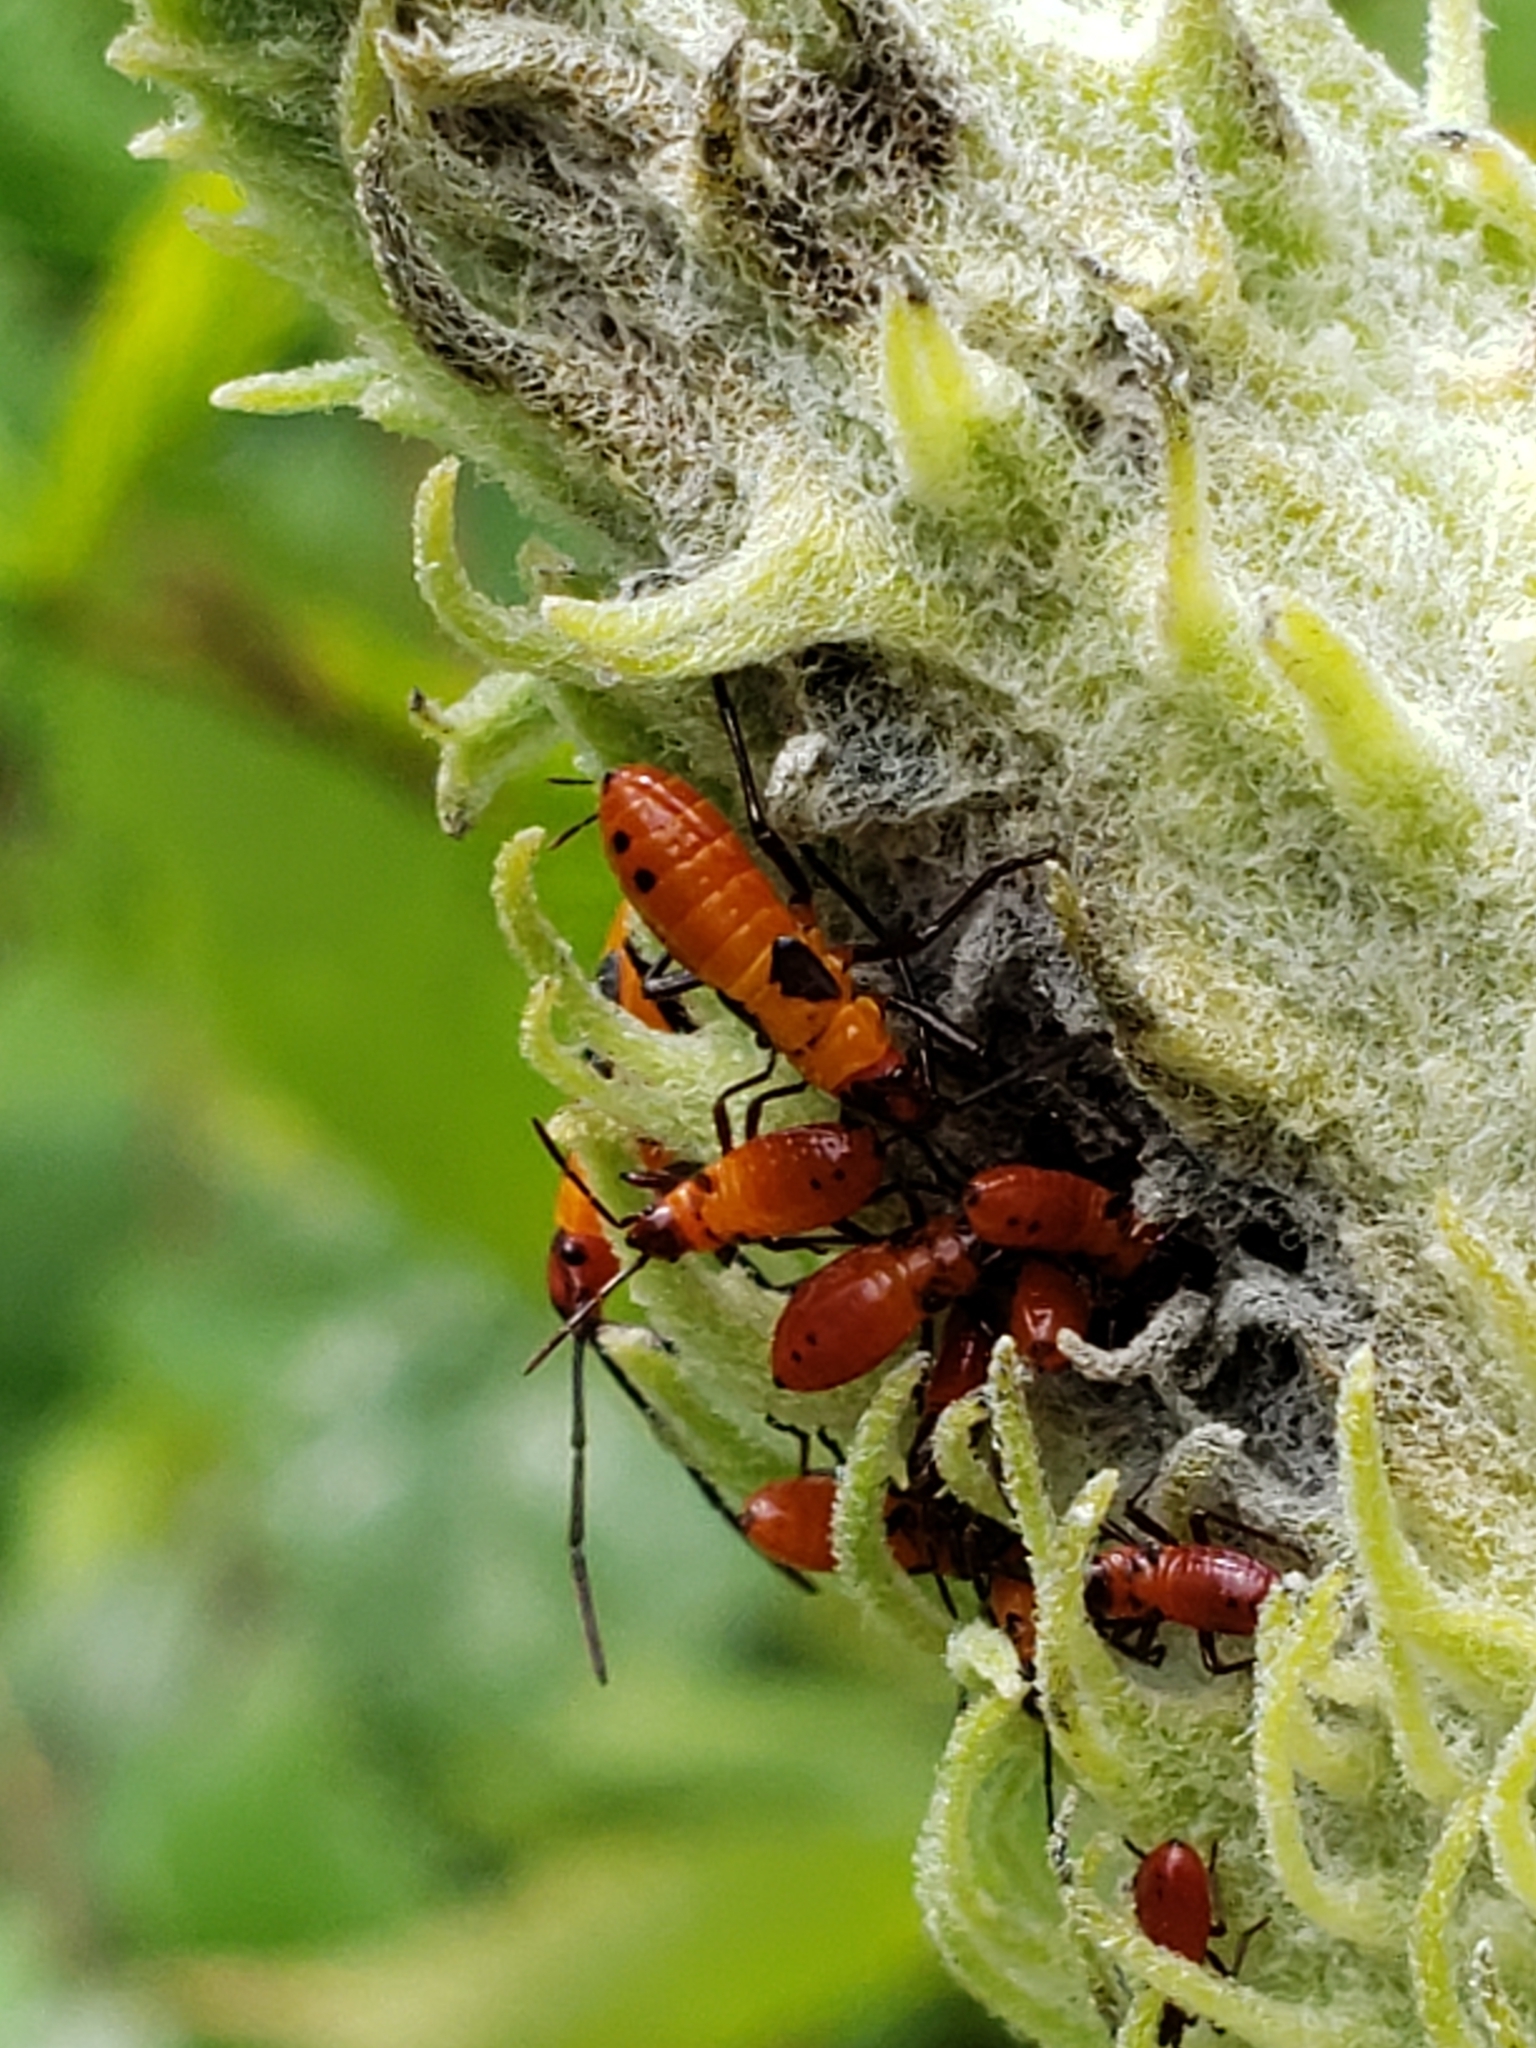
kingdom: Animalia
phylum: Arthropoda
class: Insecta
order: Hemiptera
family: Lygaeidae
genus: Oncopeltus
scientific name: Oncopeltus fasciatus
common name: Large milkweed bug
